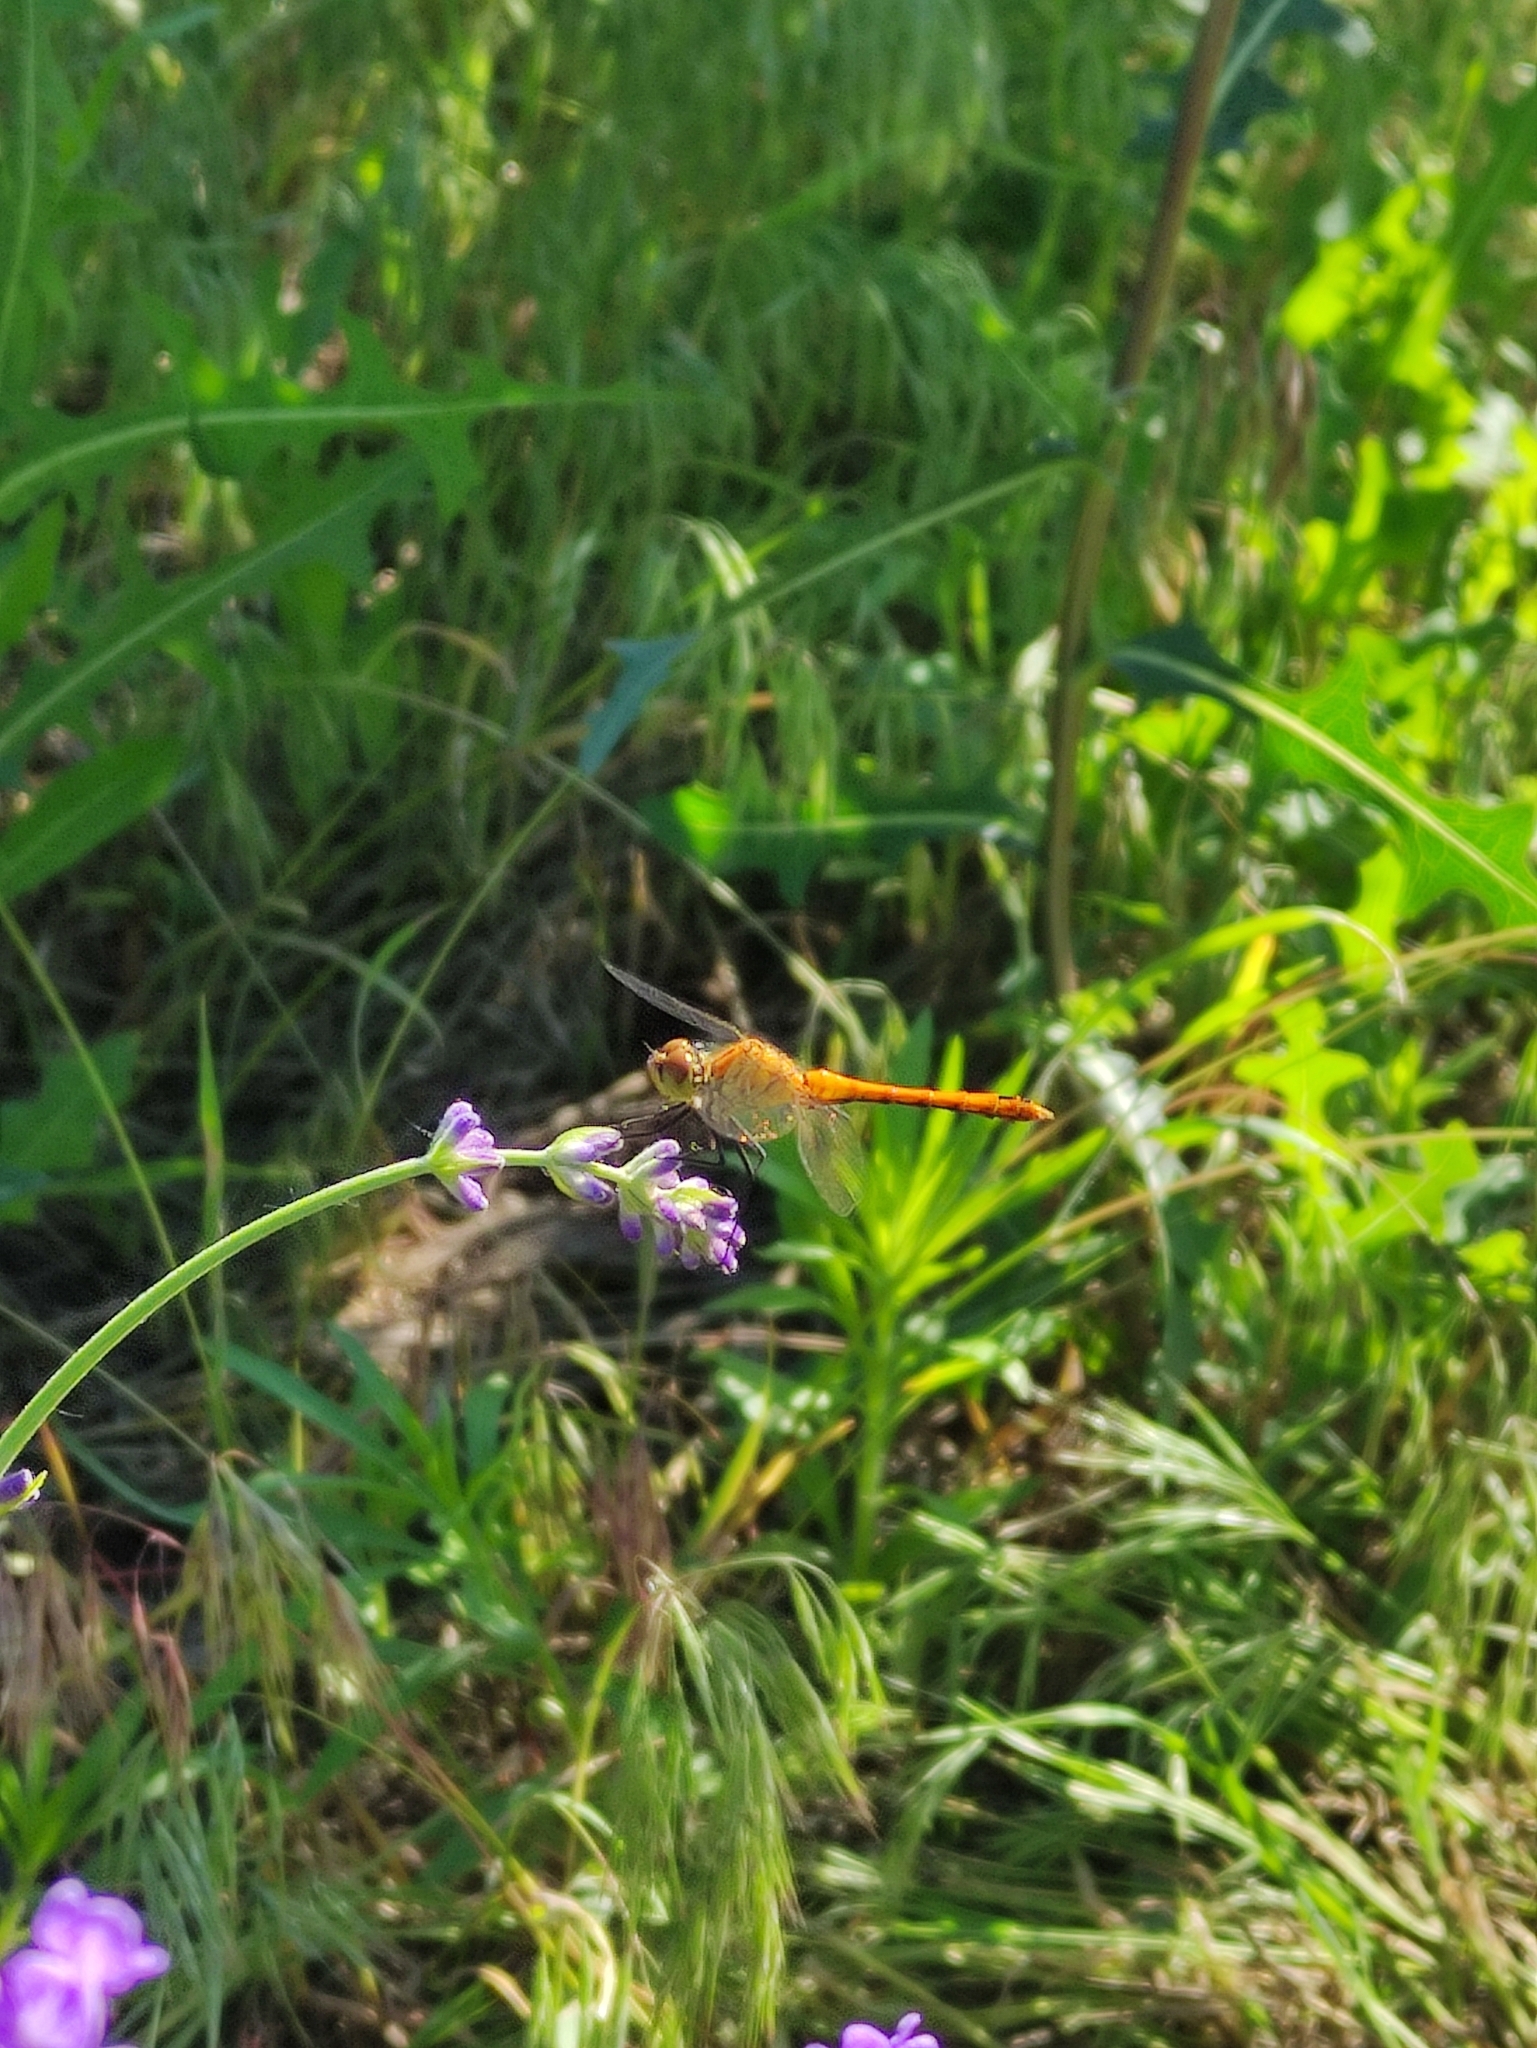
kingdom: Animalia
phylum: Arthropoda
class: Insecta
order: Odonata
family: Libellulidae
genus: Sympetrum
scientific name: Sympetrum sanguineum
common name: Ruddy darter
